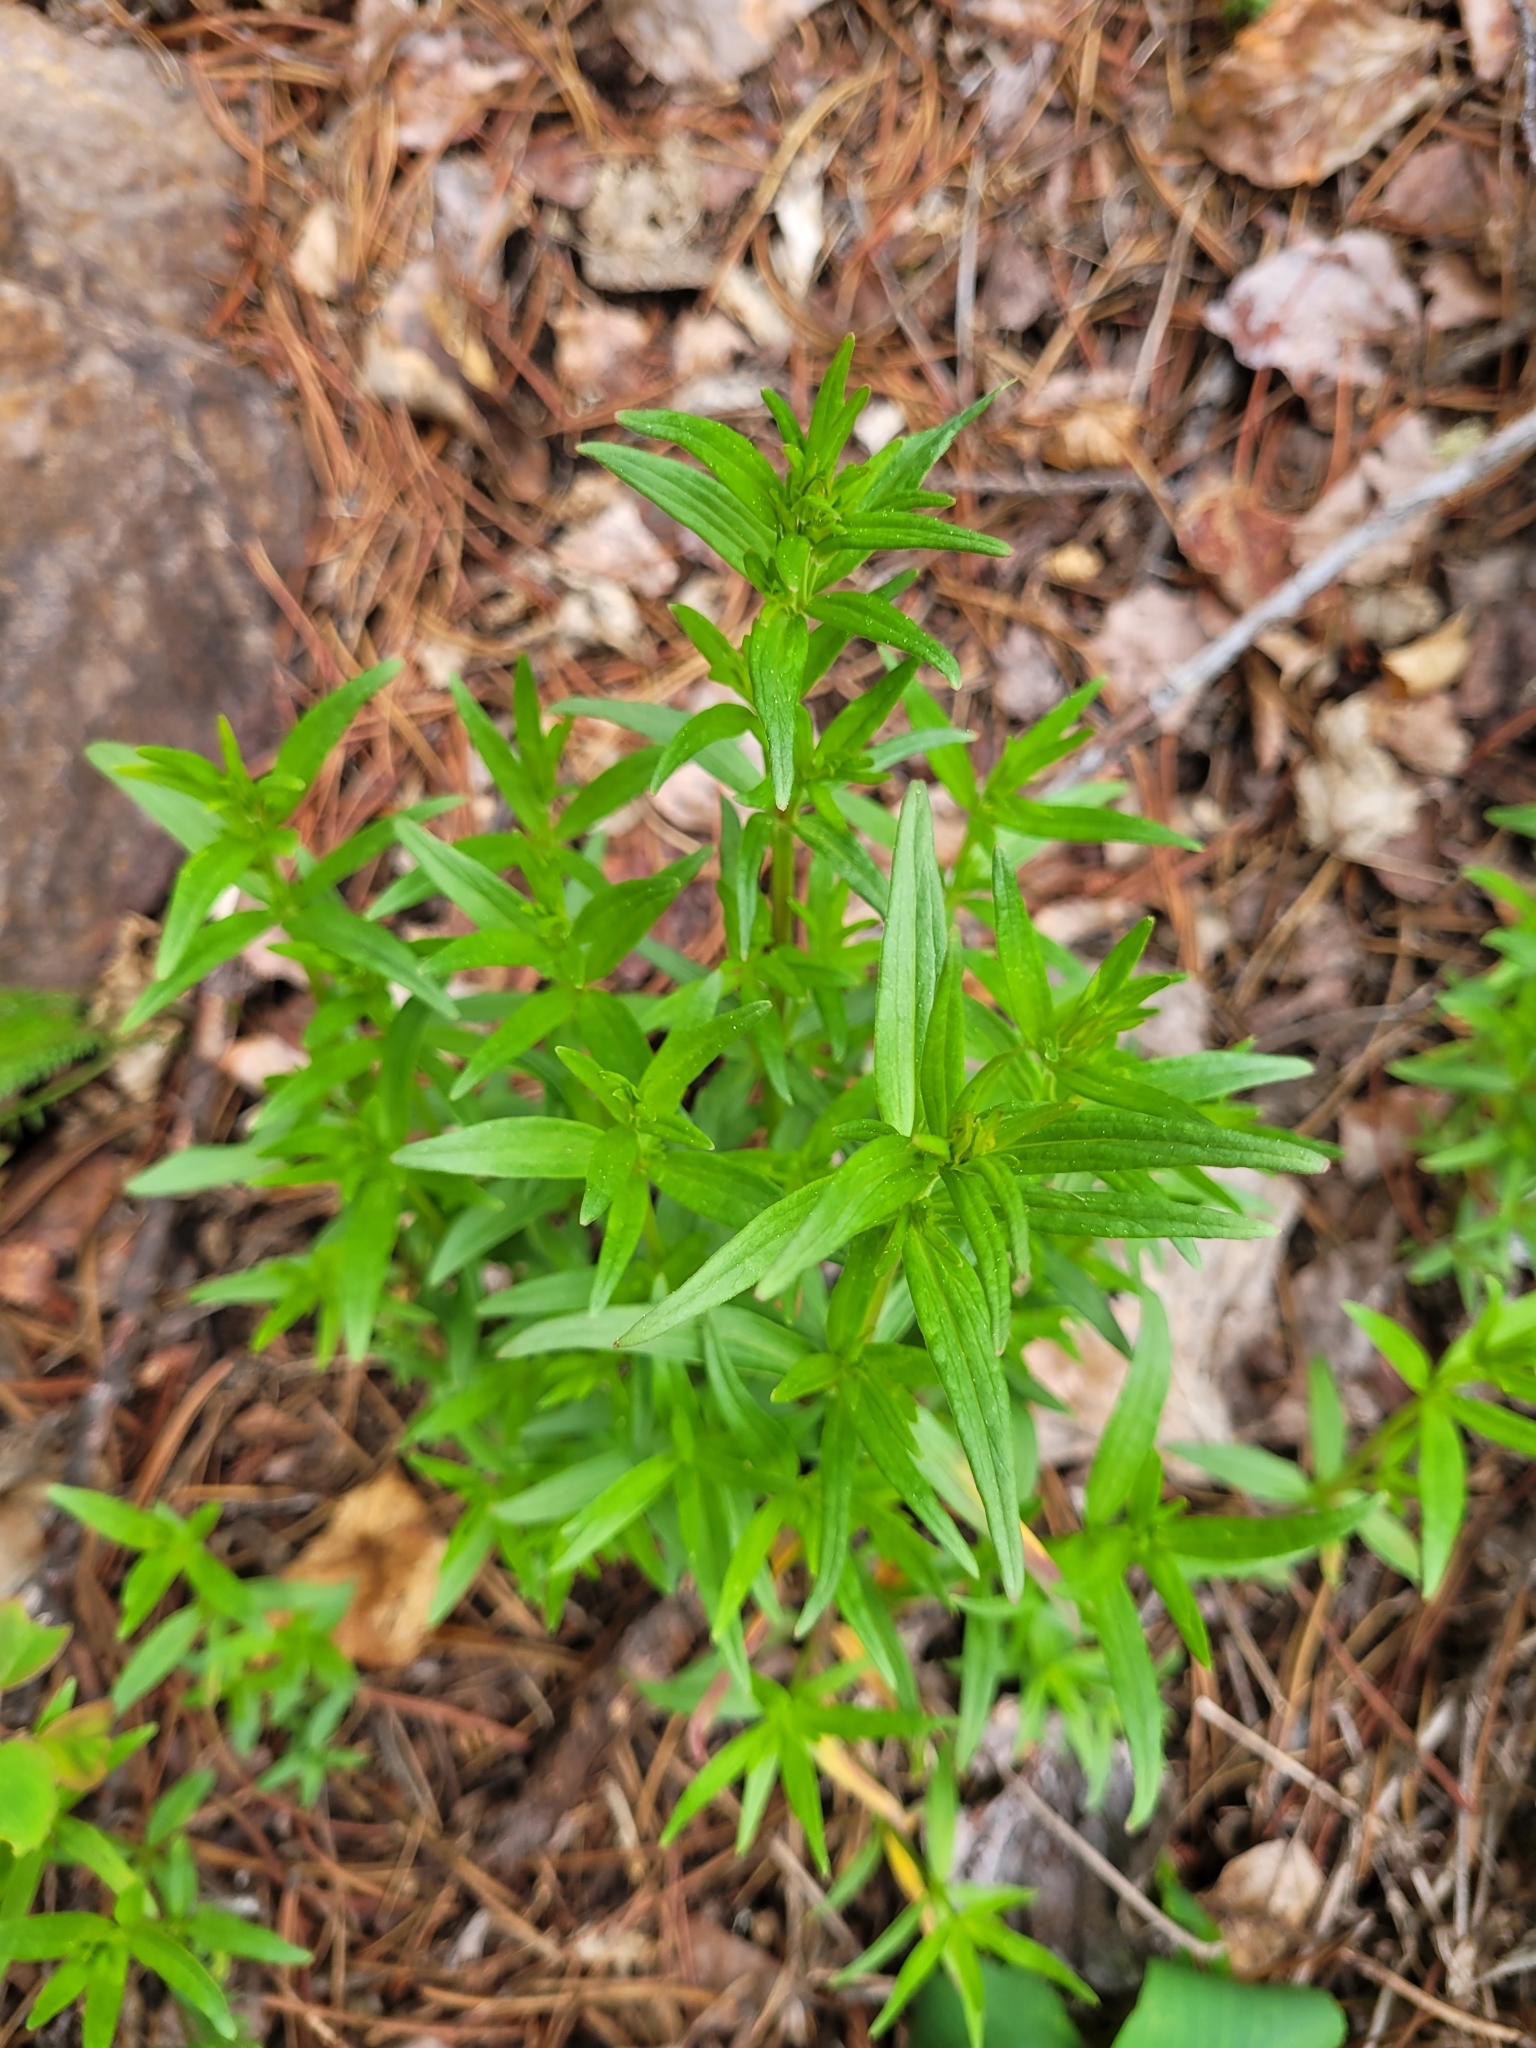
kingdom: Plantae
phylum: Tracheophyta
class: Magnoliopsida
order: Gentianales
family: Rubiaceae
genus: Galium
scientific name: Galium boreale
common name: Northern bedstraw
